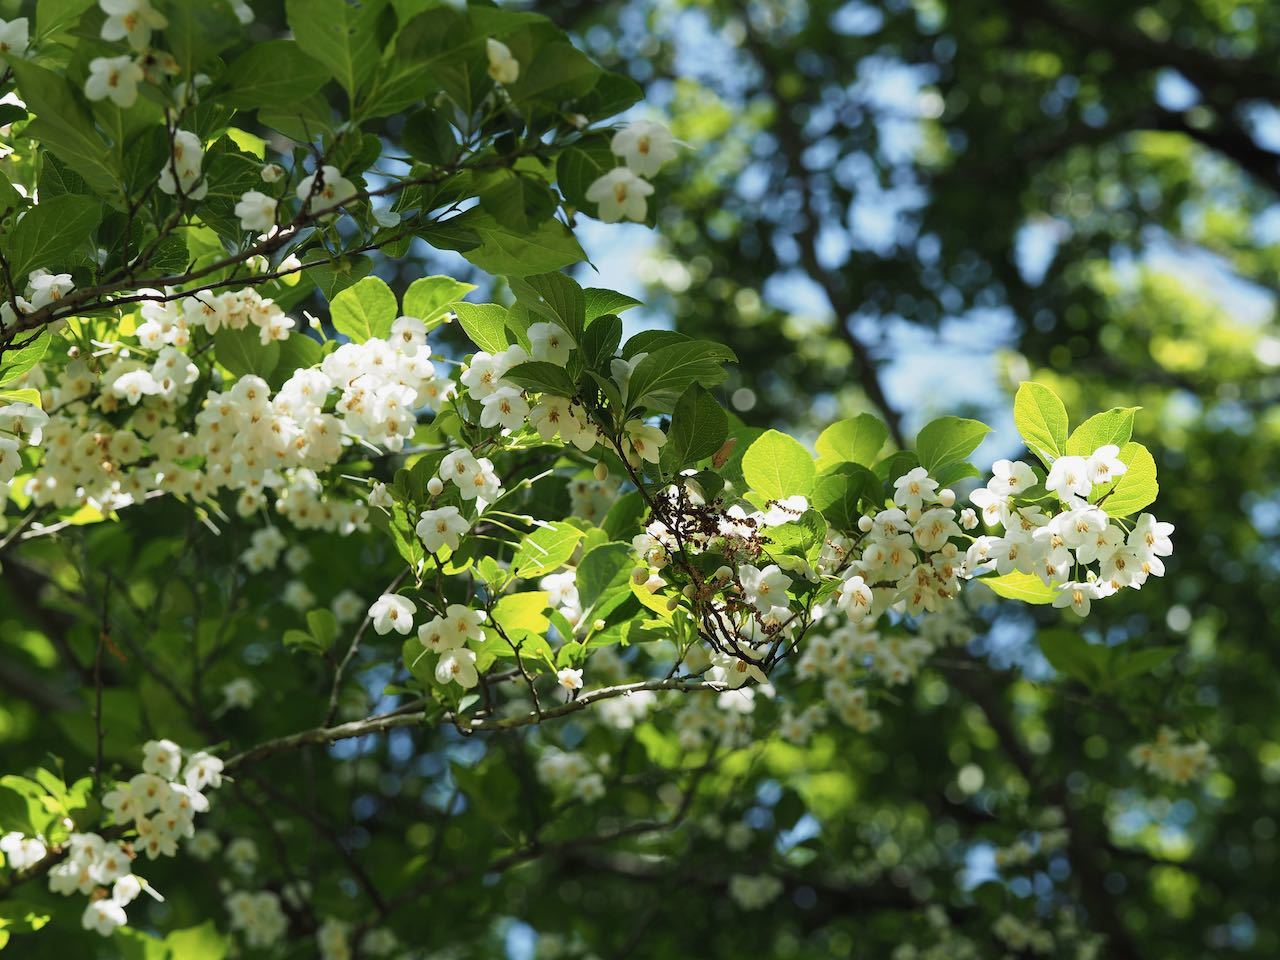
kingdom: Plantae
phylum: Tracheophyta
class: Magnoliopsida
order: Ericales
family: Styracaceae
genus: Styrax
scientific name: Styrax japonicus
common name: Japanese snowbell
